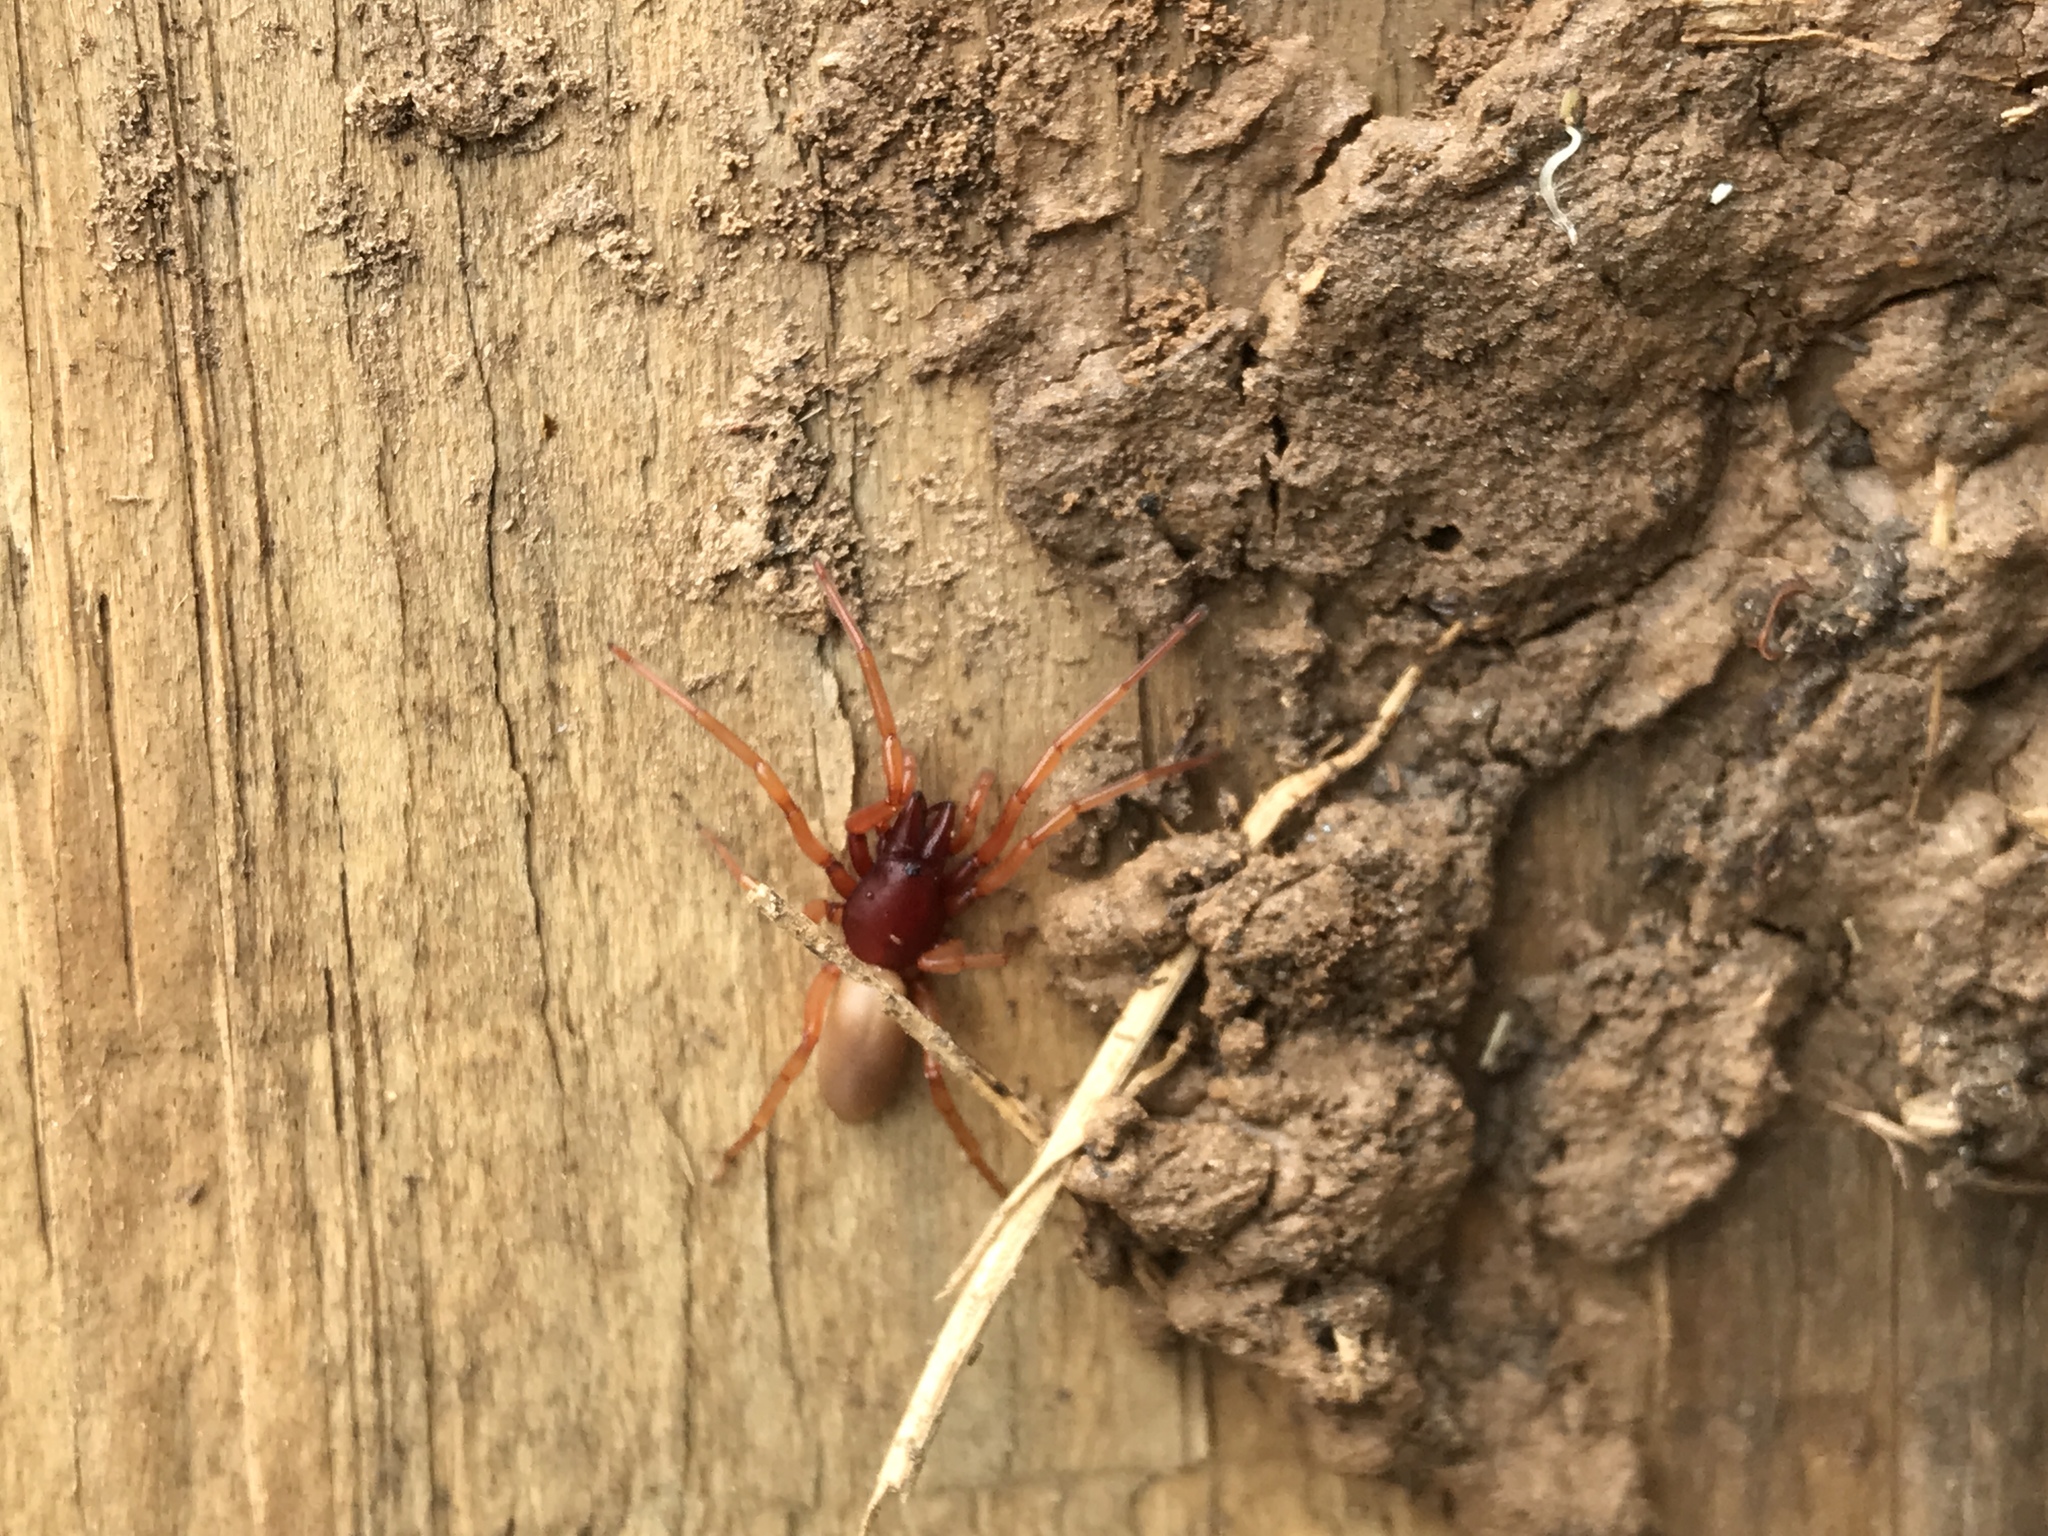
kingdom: Animalia
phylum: Arthropoda
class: Arachnida
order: Araneae
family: Dysderidae
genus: Dysdera
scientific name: Dysdera crocata
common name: Woodlouse spider
